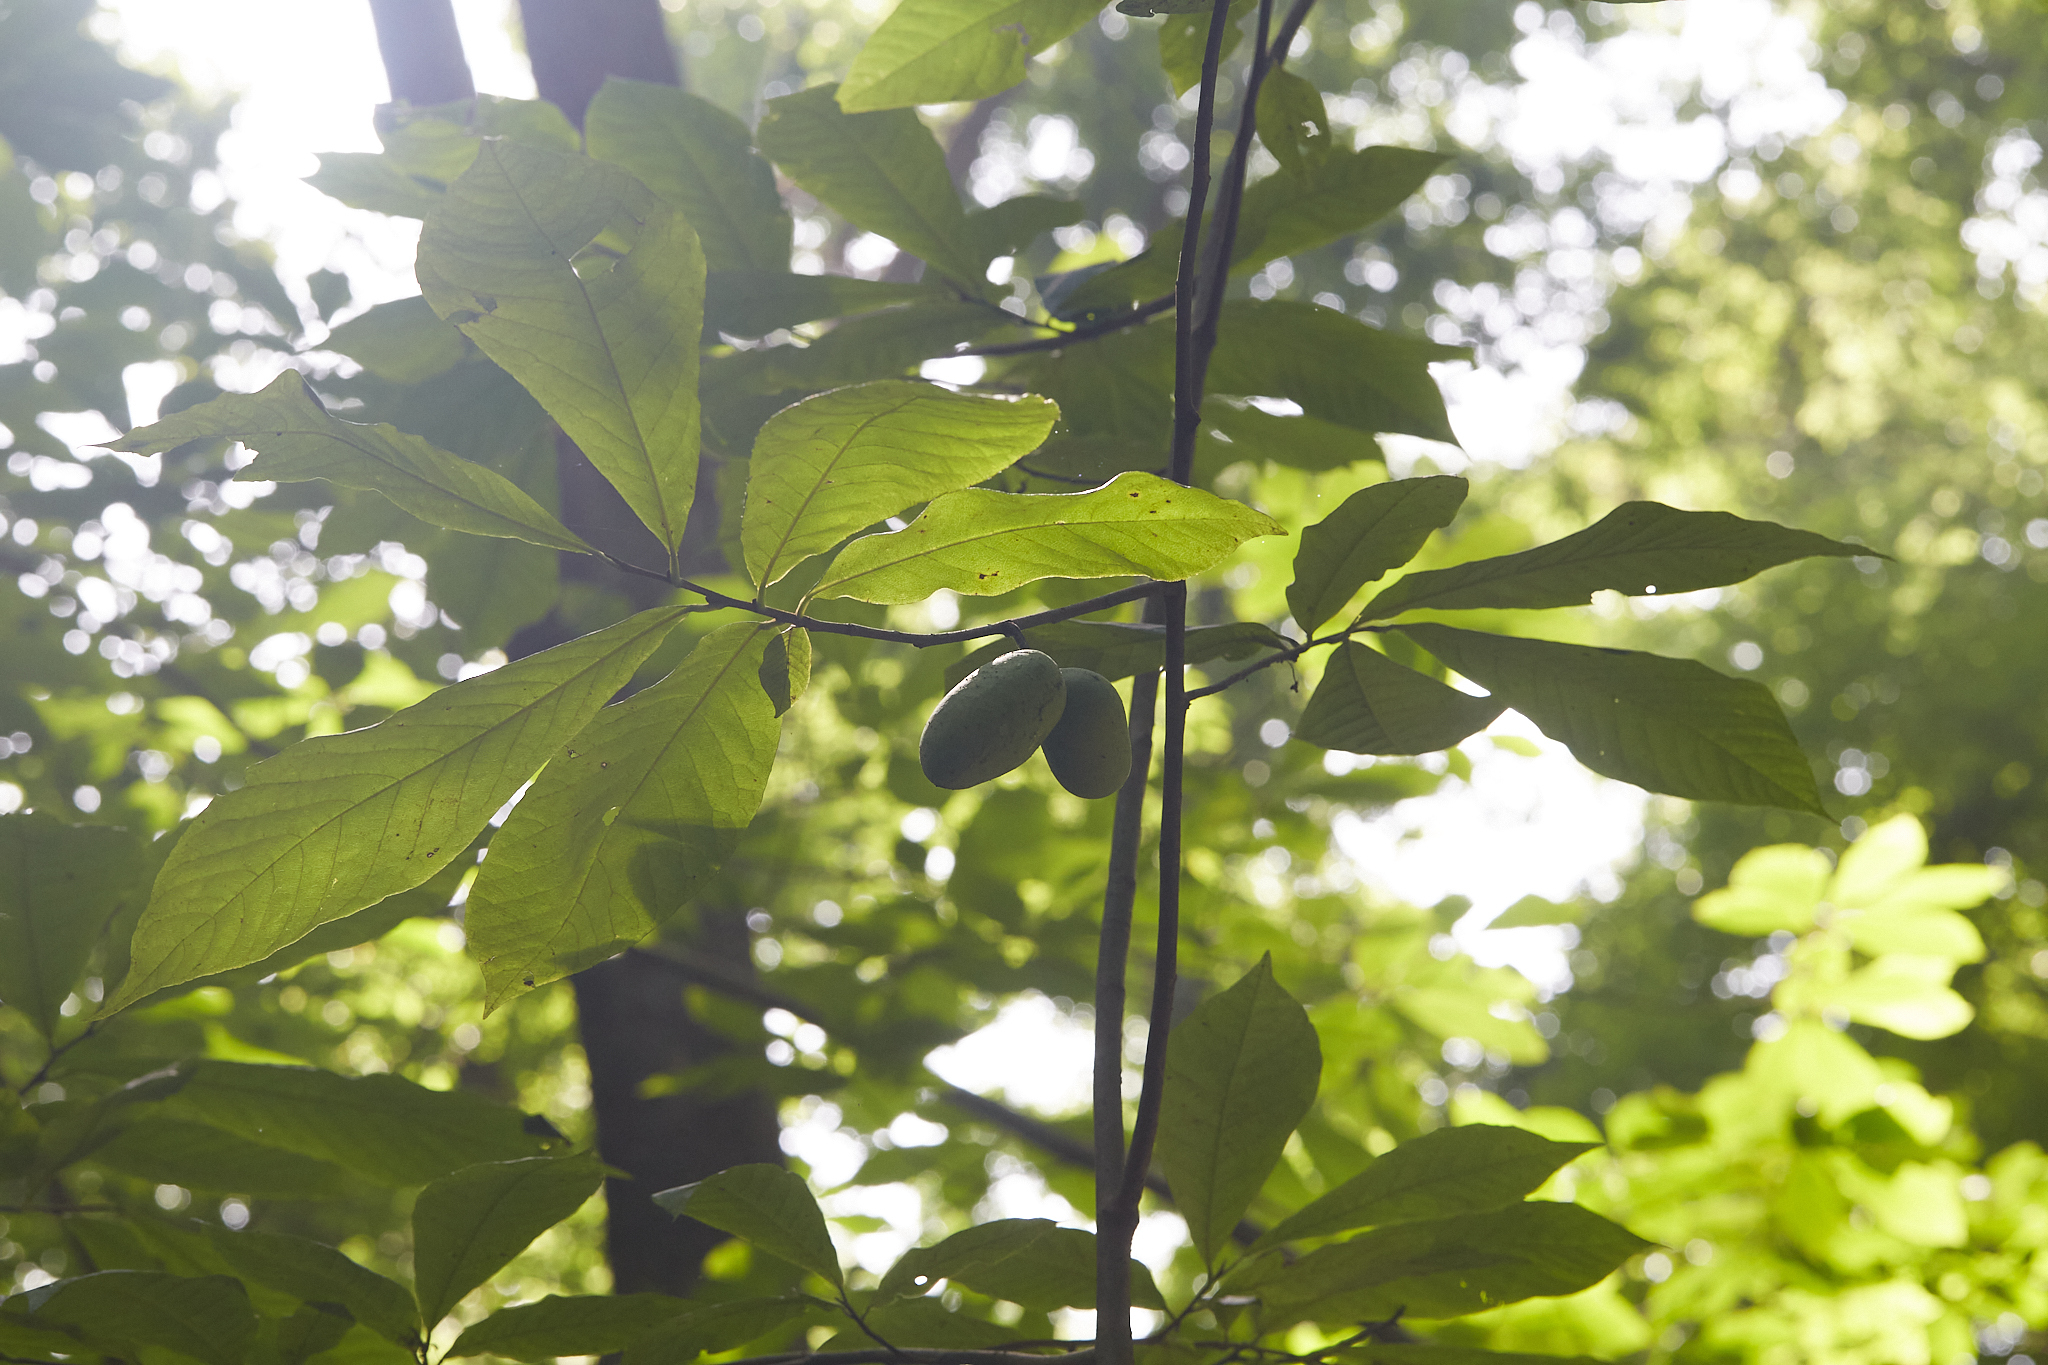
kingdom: Plantae
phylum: Tracheophyta
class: Magnoliopsida
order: Magnoliales
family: Annonaceae
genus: Asimina
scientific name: Asimina triloba
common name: Dog-banana
